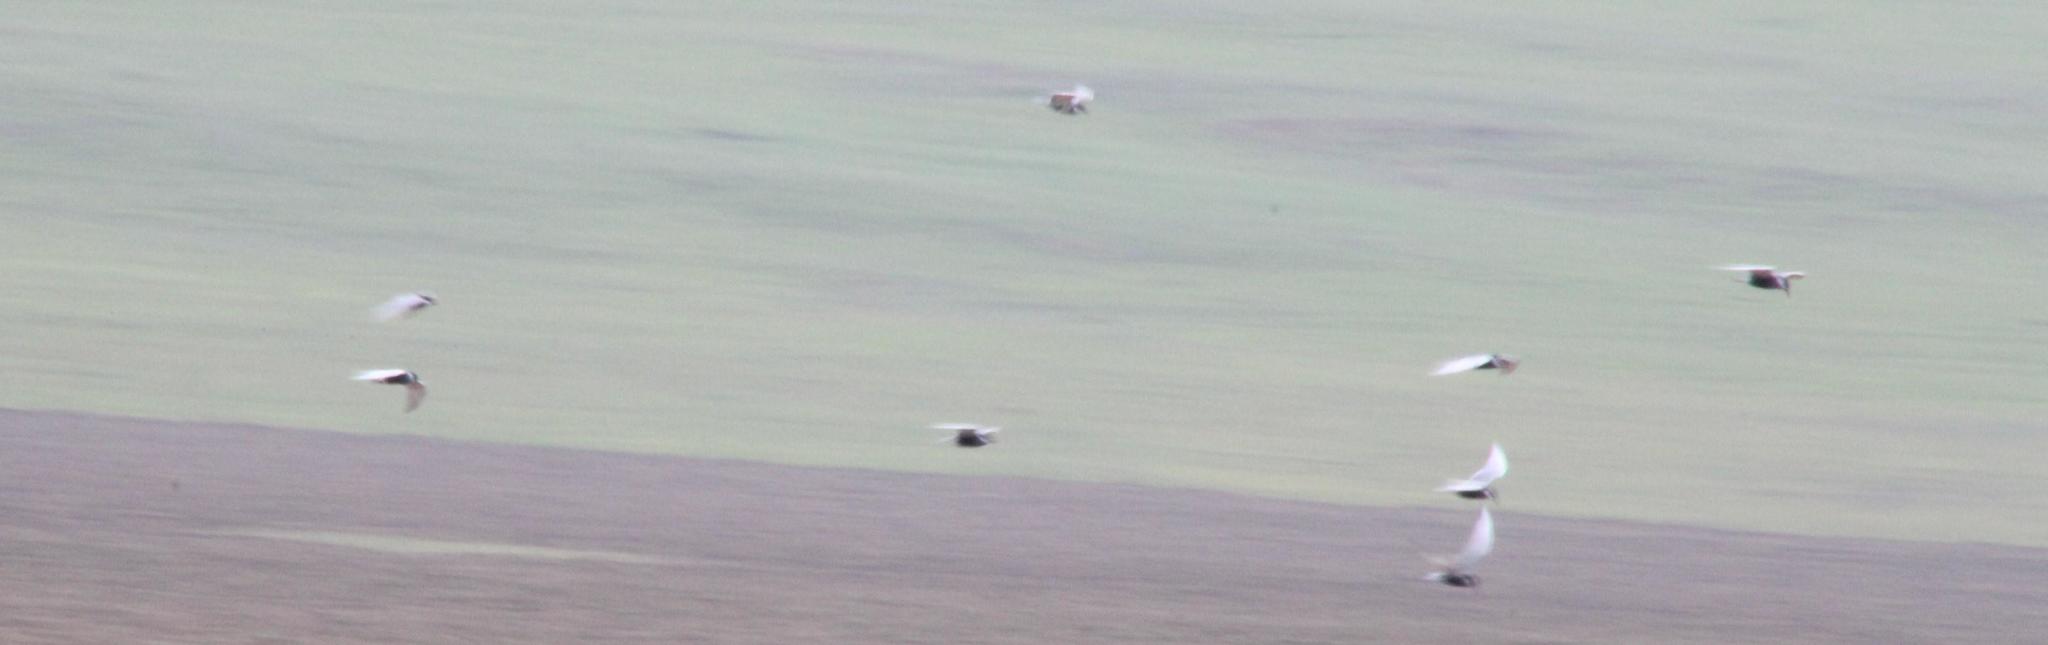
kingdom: Animalia
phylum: Chordata
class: Aves
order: Charadriiformes
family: Laridae
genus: Chlidonias
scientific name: Chlidonias hybrida
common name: Whiskered tern
